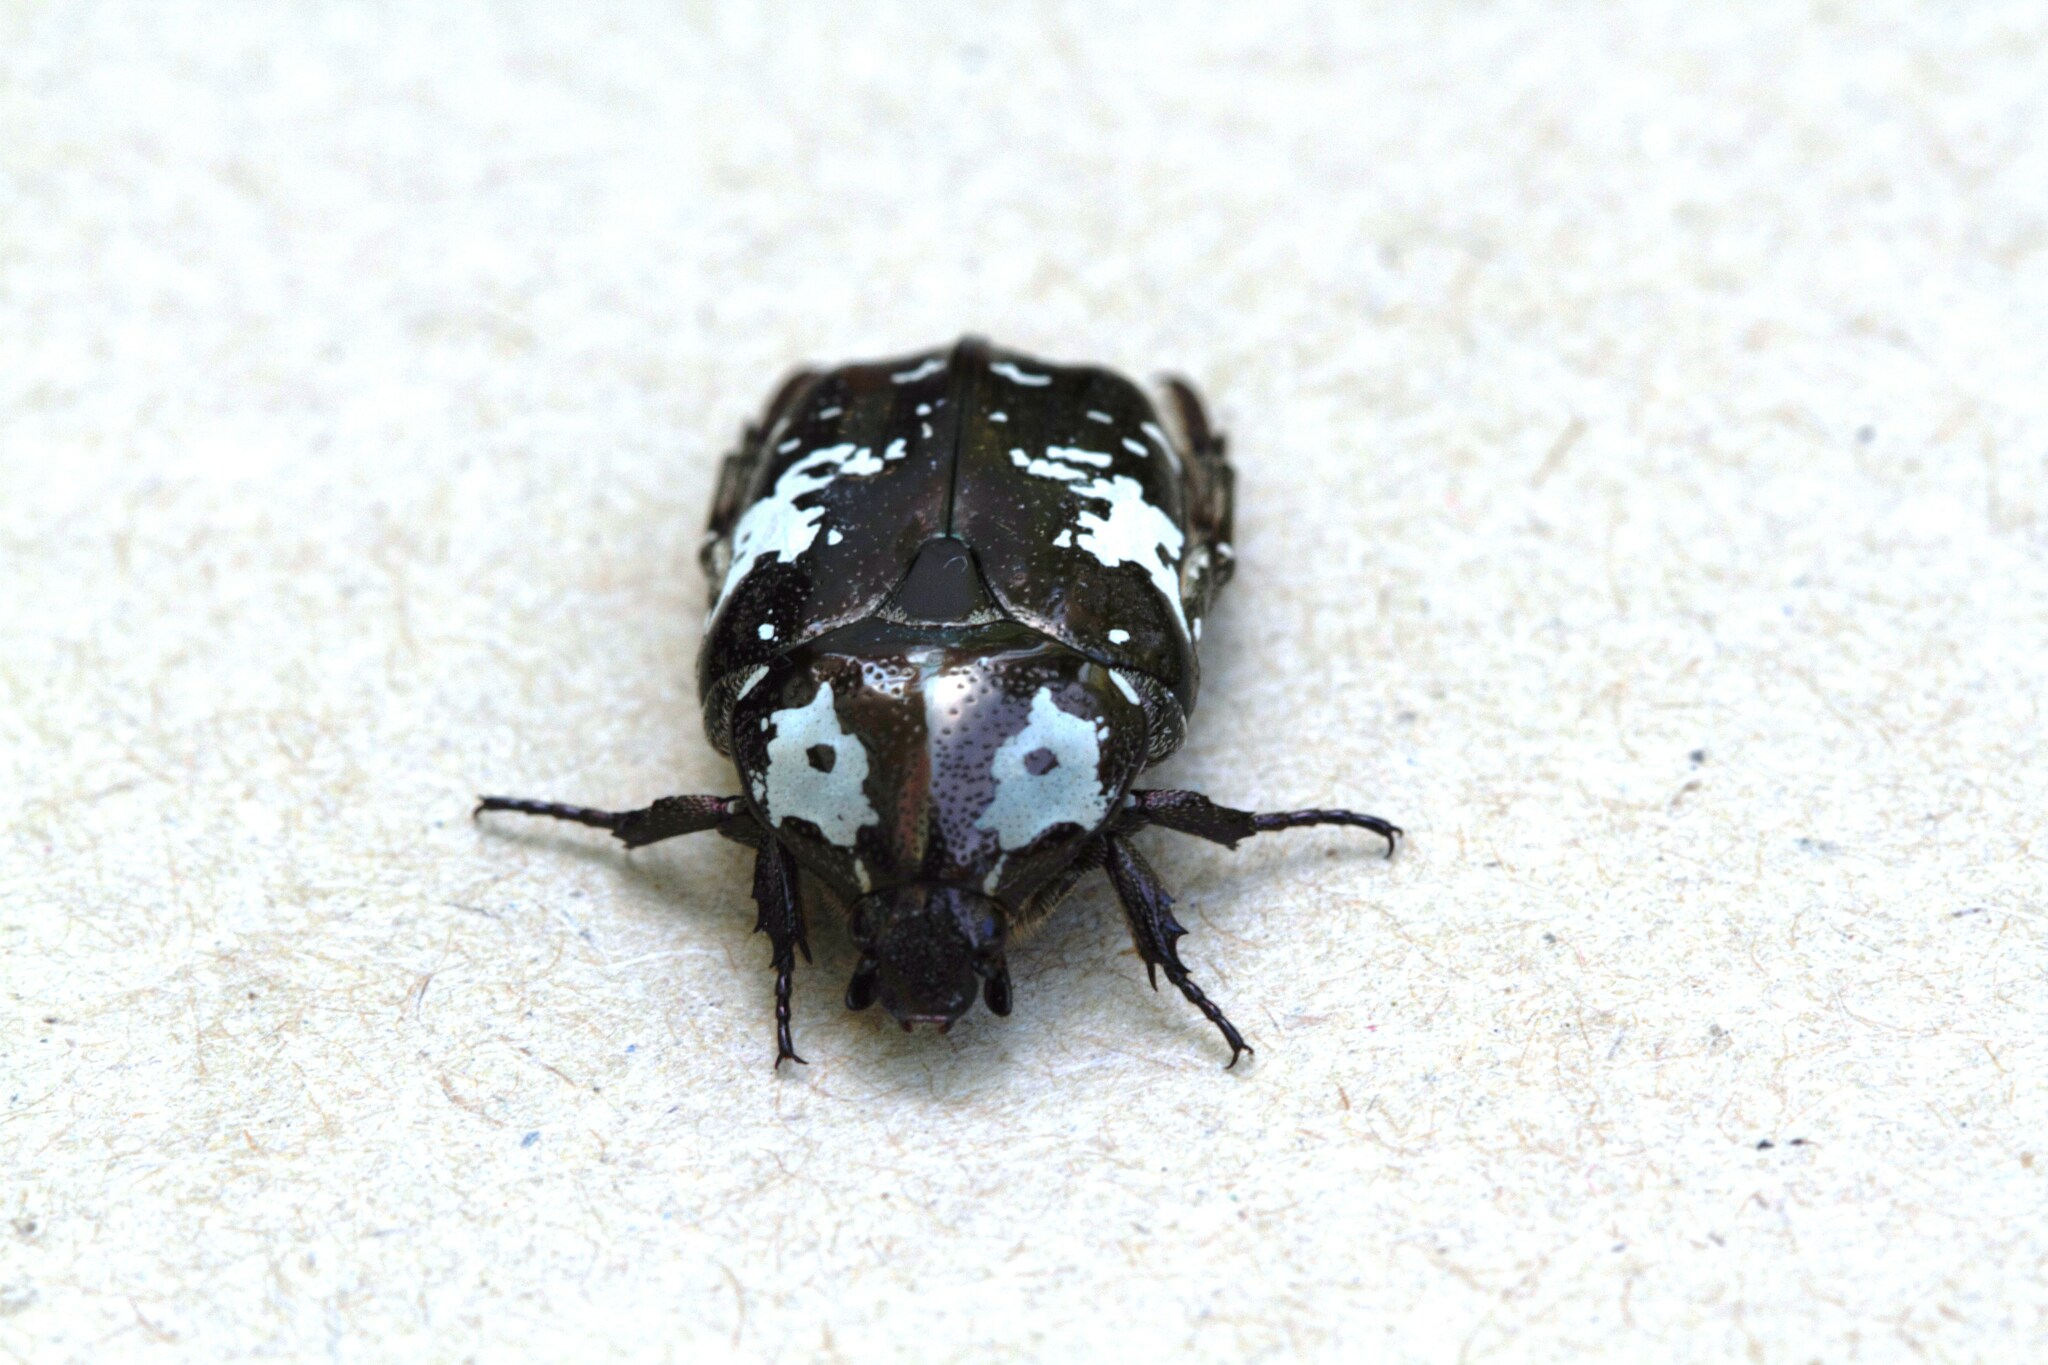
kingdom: Animalia
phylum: Arthropoda
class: Insecta
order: Coleoptera
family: Scarabaeidae
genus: Protaetia
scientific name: Protaetia aurichalcea
